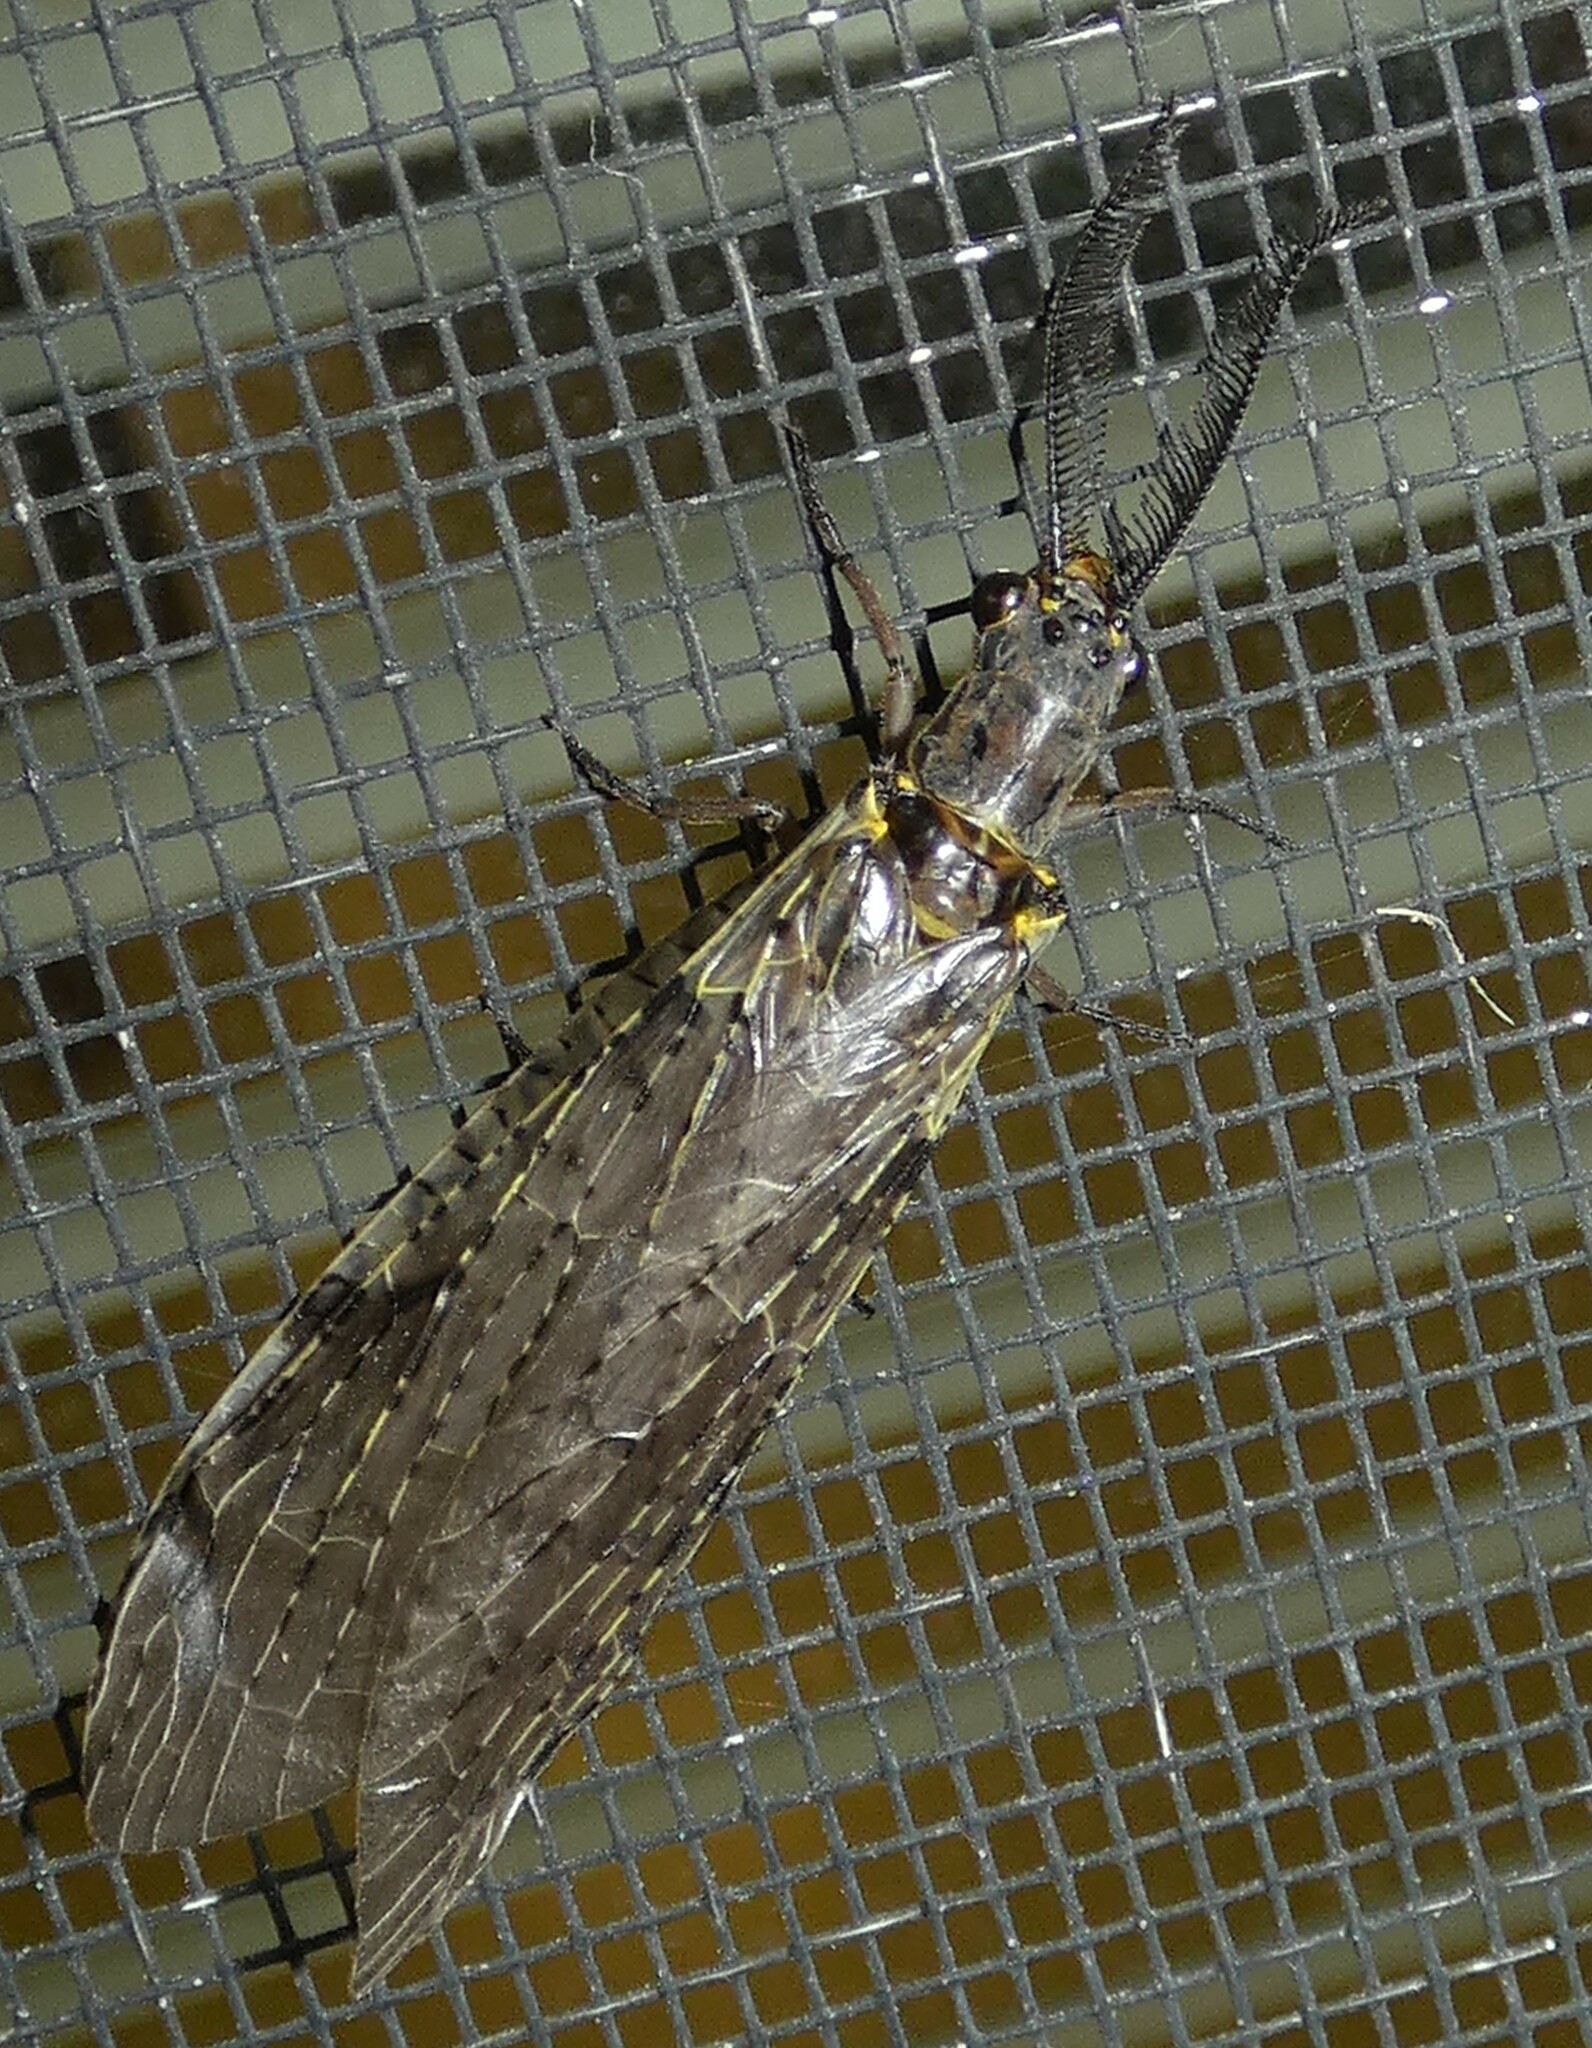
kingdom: Animalia
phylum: Arthropoda
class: Insecta
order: Megaloptera
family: Corydalidae
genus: Chauliodes
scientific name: Chauliodes rastricornis
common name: Spring fishfly
